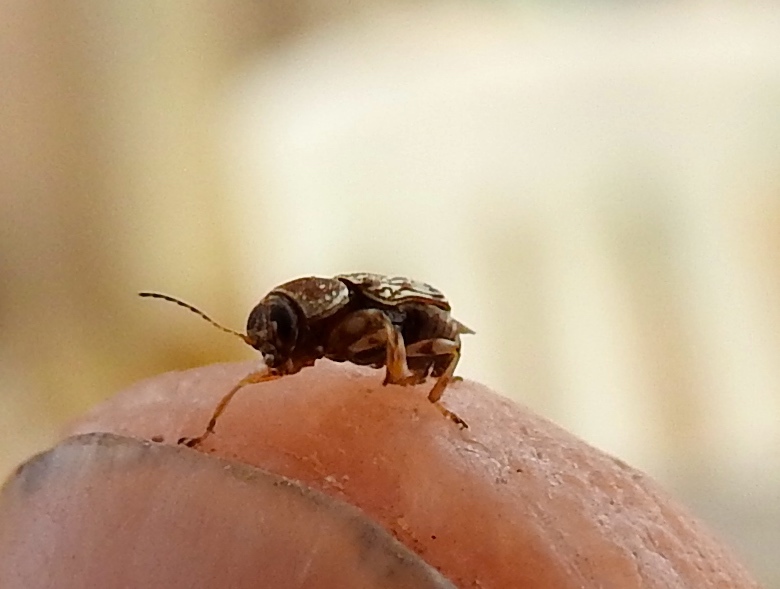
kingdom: Animalia
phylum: Arthropoda
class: Insecta
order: Coleoptera
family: Chrysomelidae
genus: Pachybrachis
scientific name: Pachybrachis
